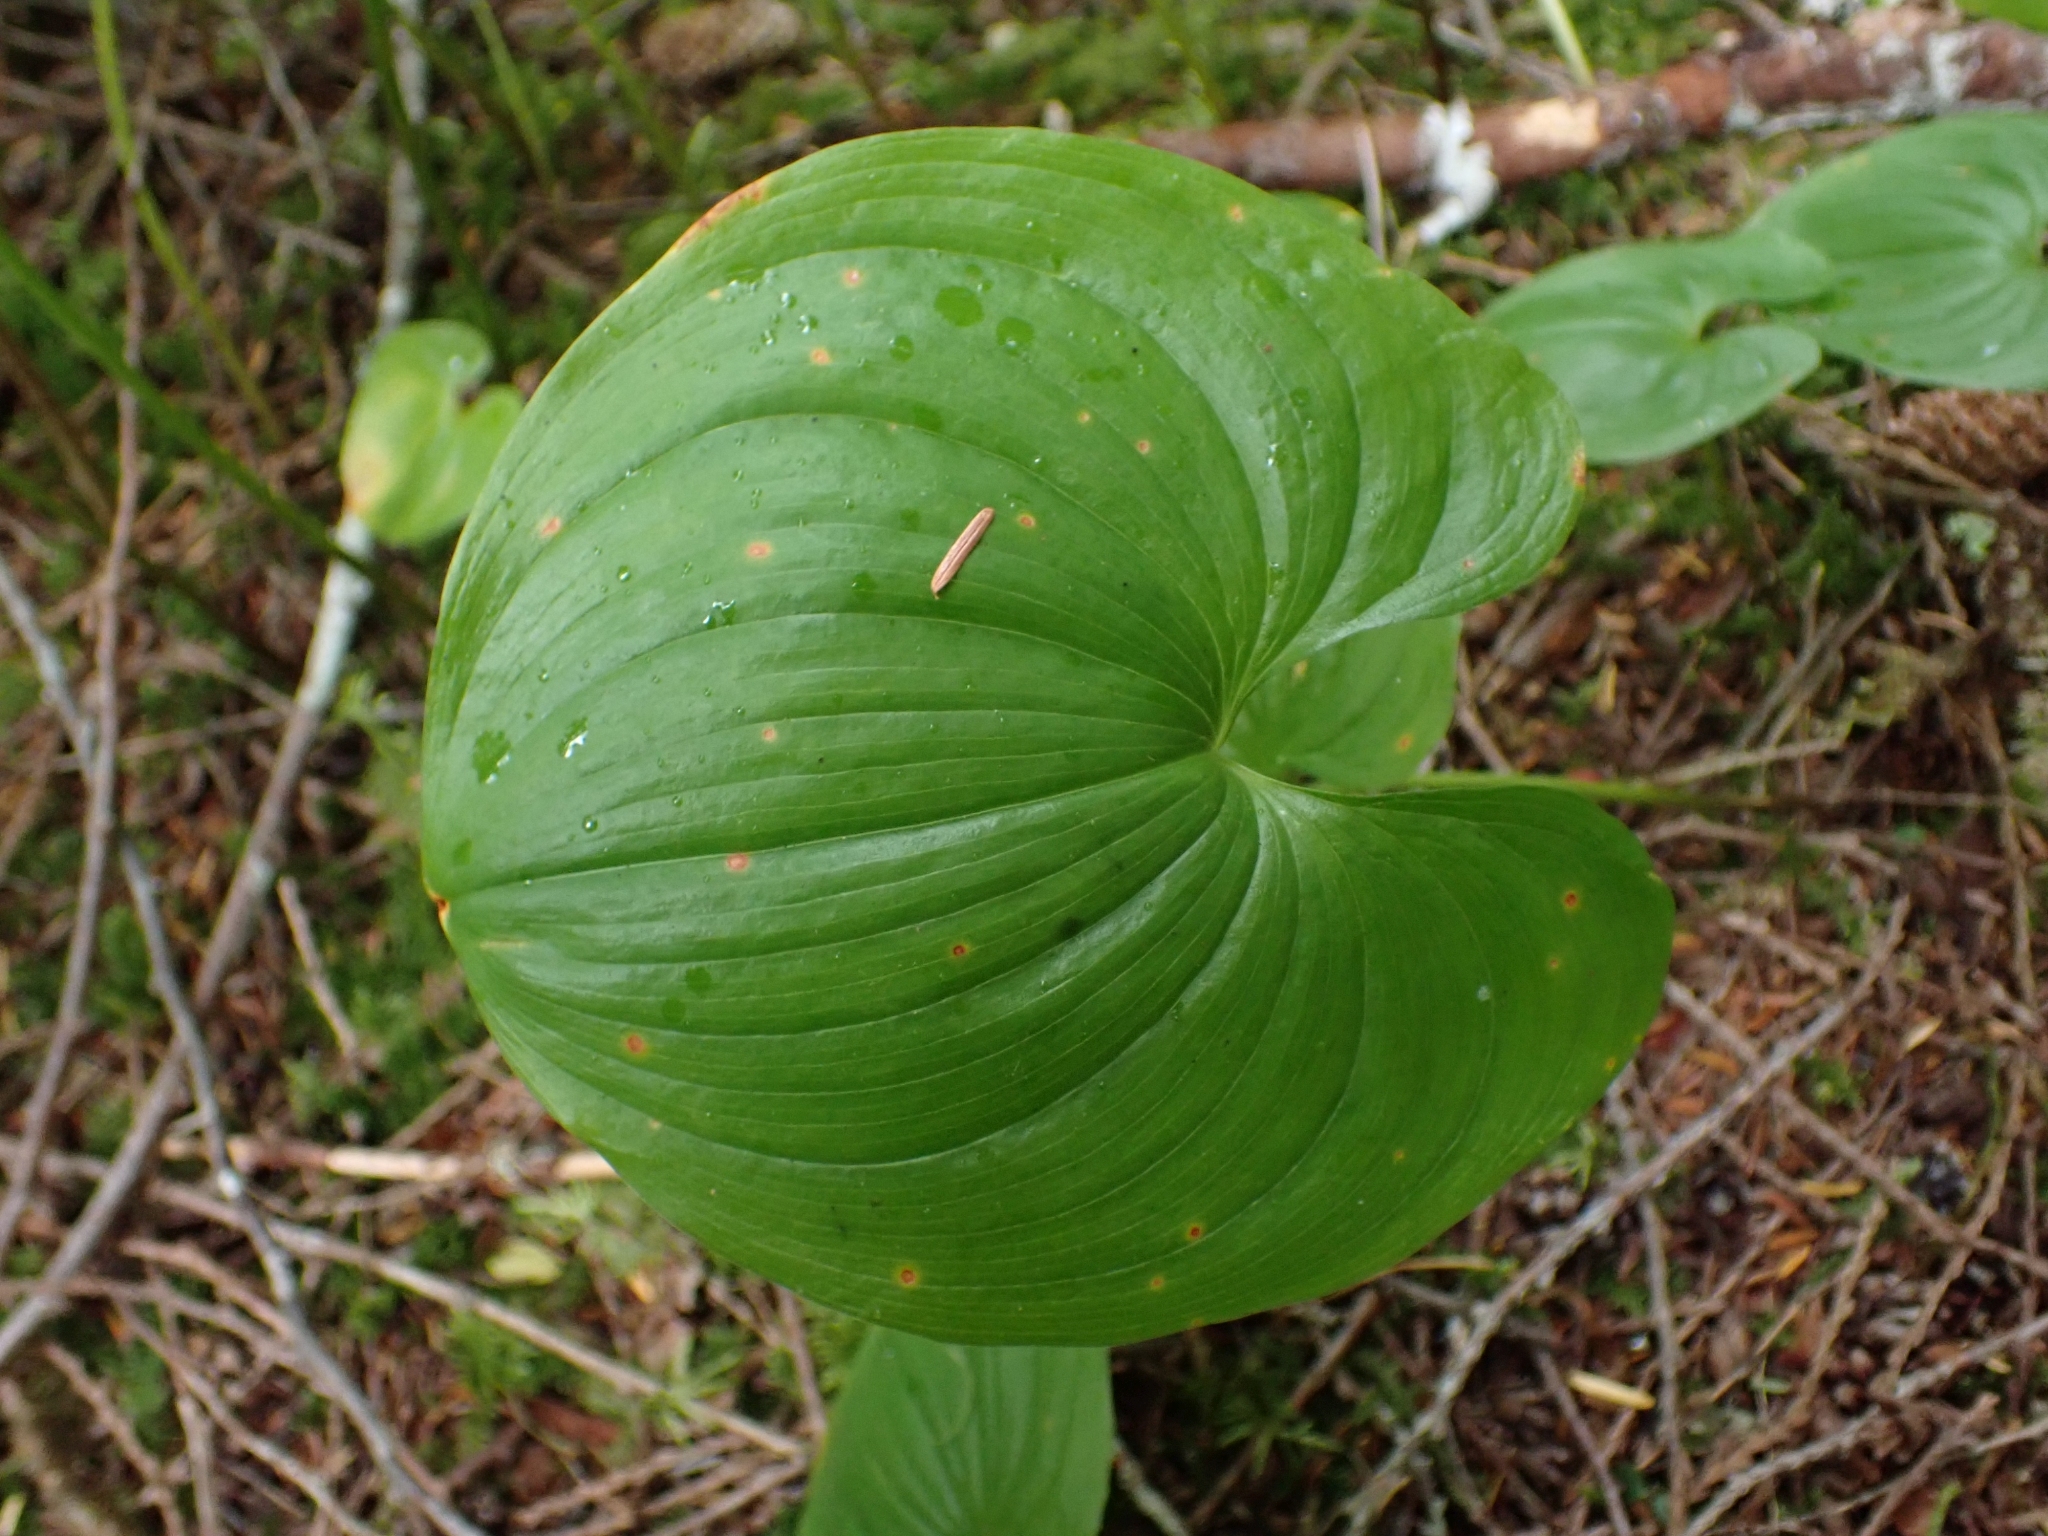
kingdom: Plantae
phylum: Tracheophyta
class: Liliopsida
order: Asparagales
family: Asparagaceae
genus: Maianthemum
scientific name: Maianthemum dilatatum
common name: False lily-of-the-valley
